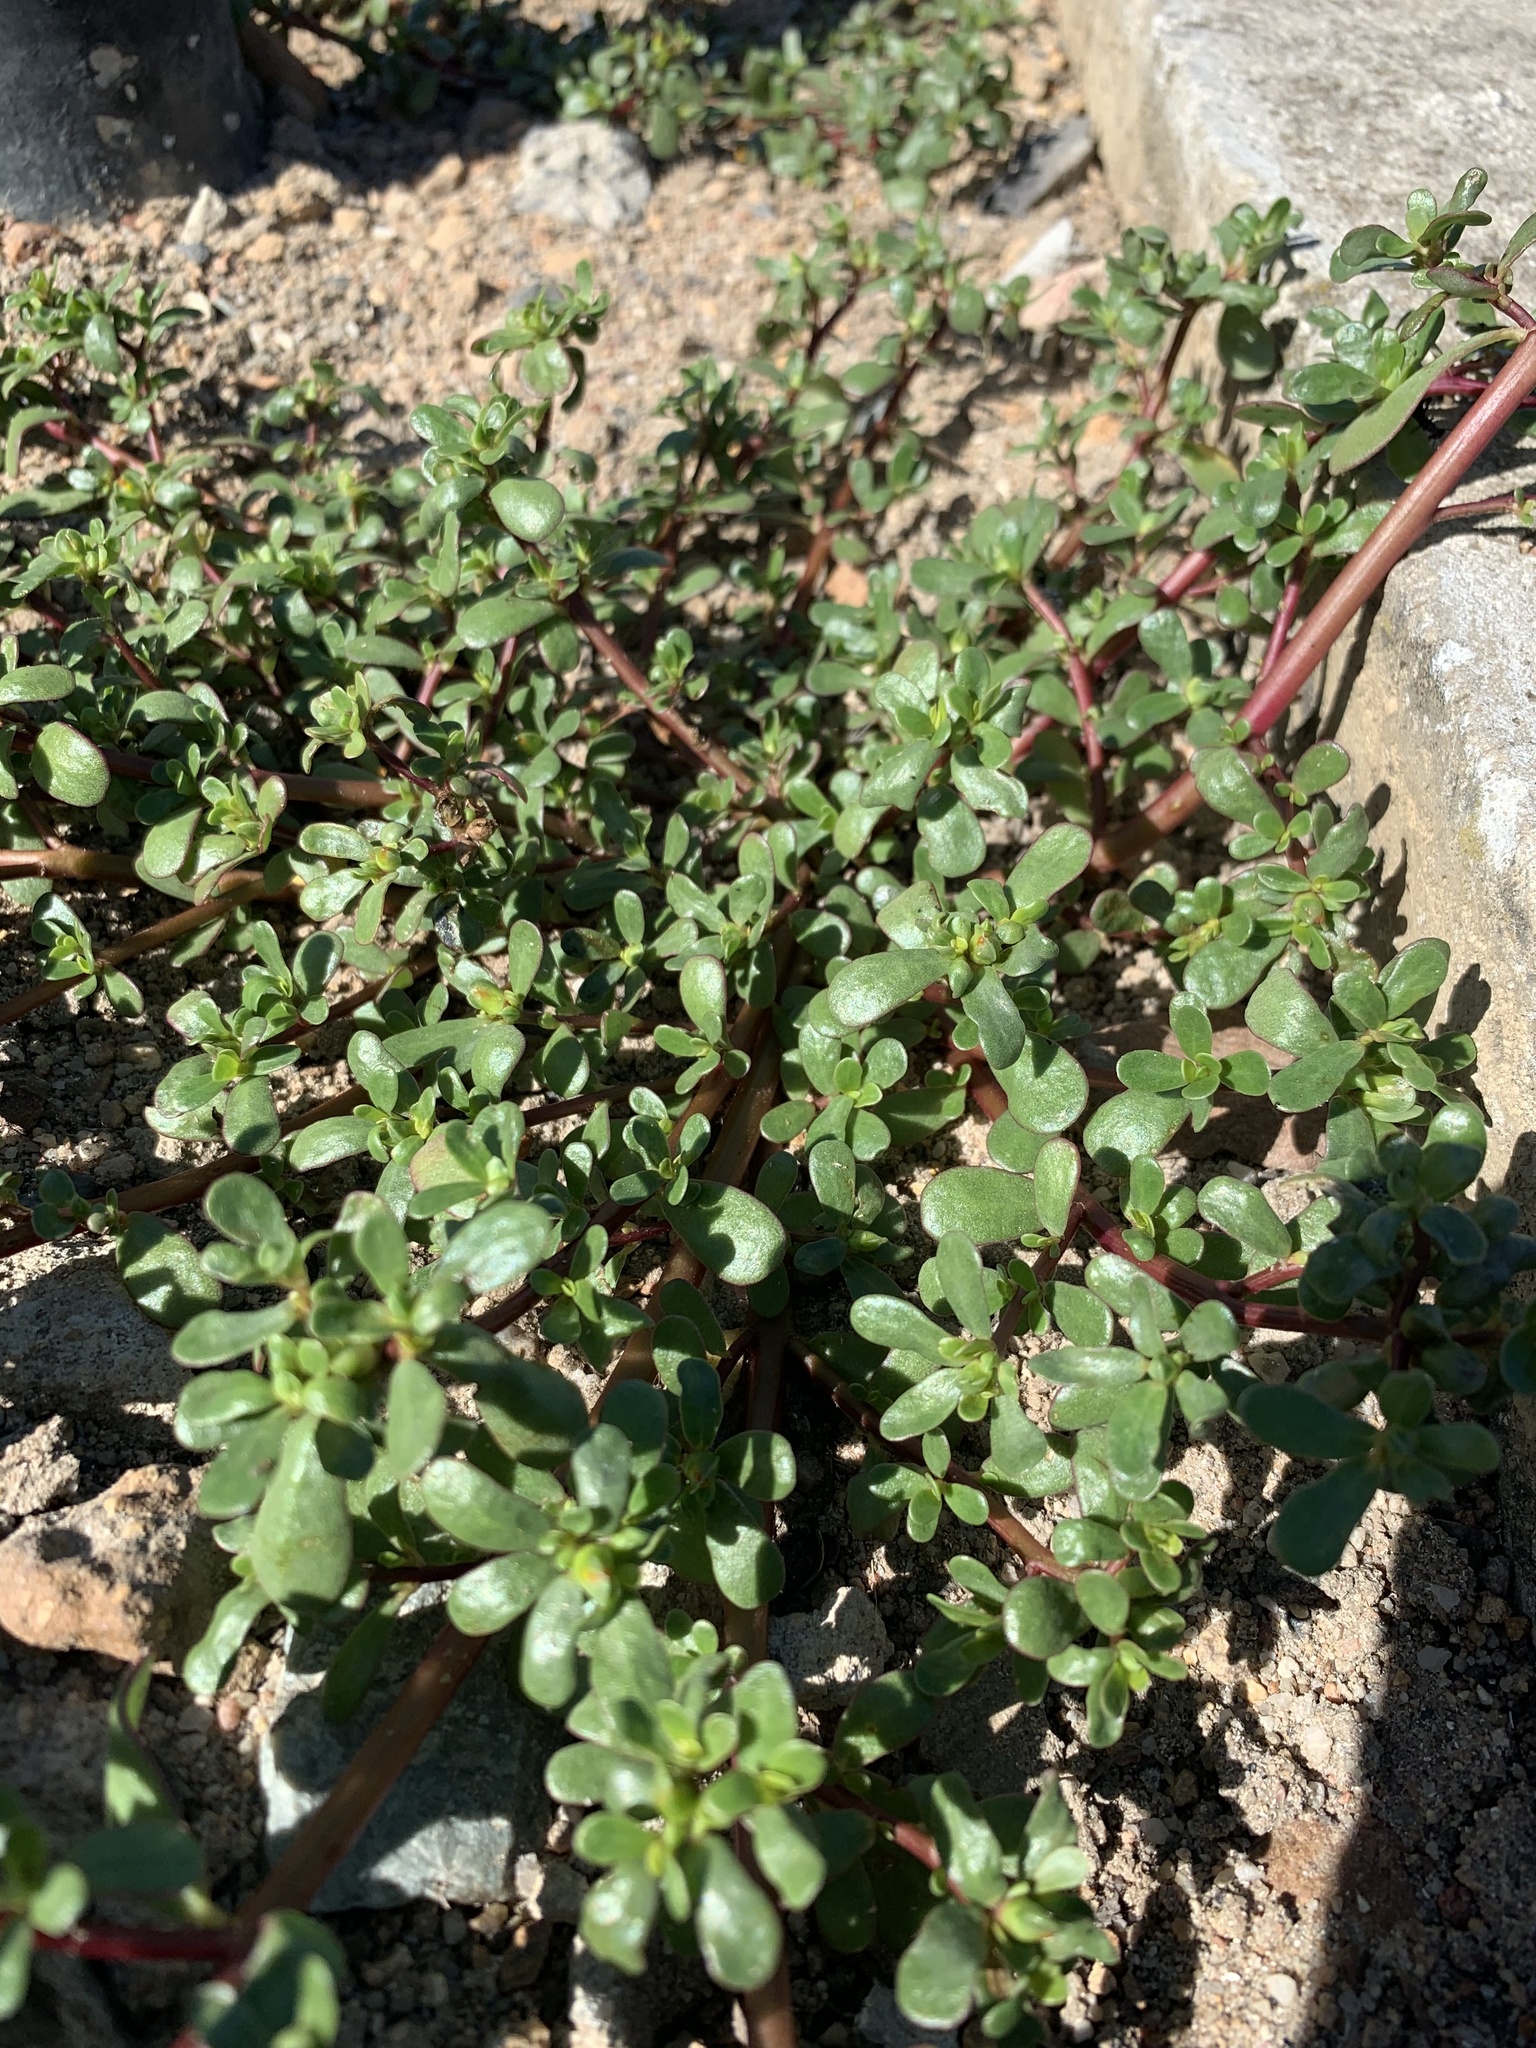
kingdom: Plantae
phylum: Tracheophyta
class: Magnoliopsida
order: Caryophyllales
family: Portulacaceae
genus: Portulaca
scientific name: Portulaca oleracea
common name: Common purslane
